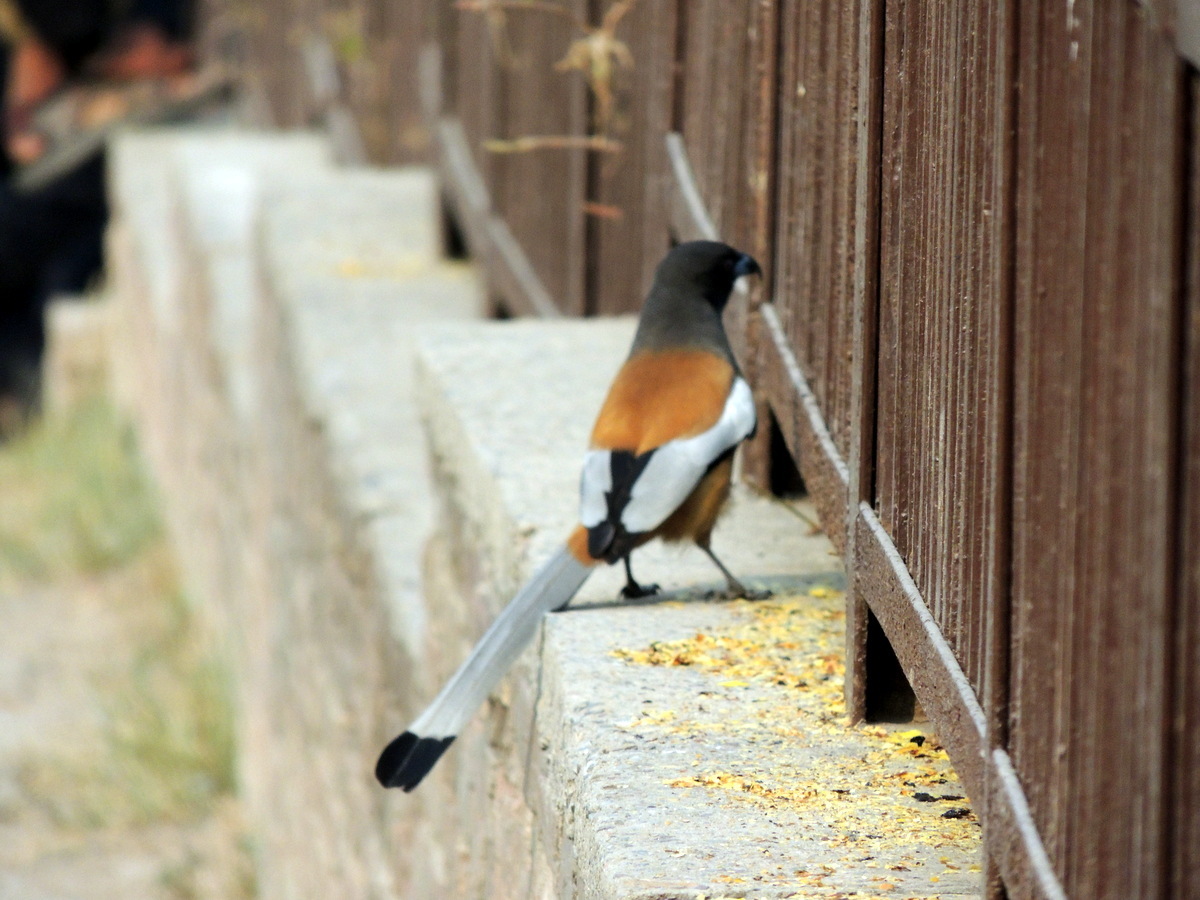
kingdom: Animalia
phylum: Chordata
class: Aves
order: Passeriformes
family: Corvidae
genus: Dendrocitta
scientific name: Dendrocitta vagabunda
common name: Rufous treepie
